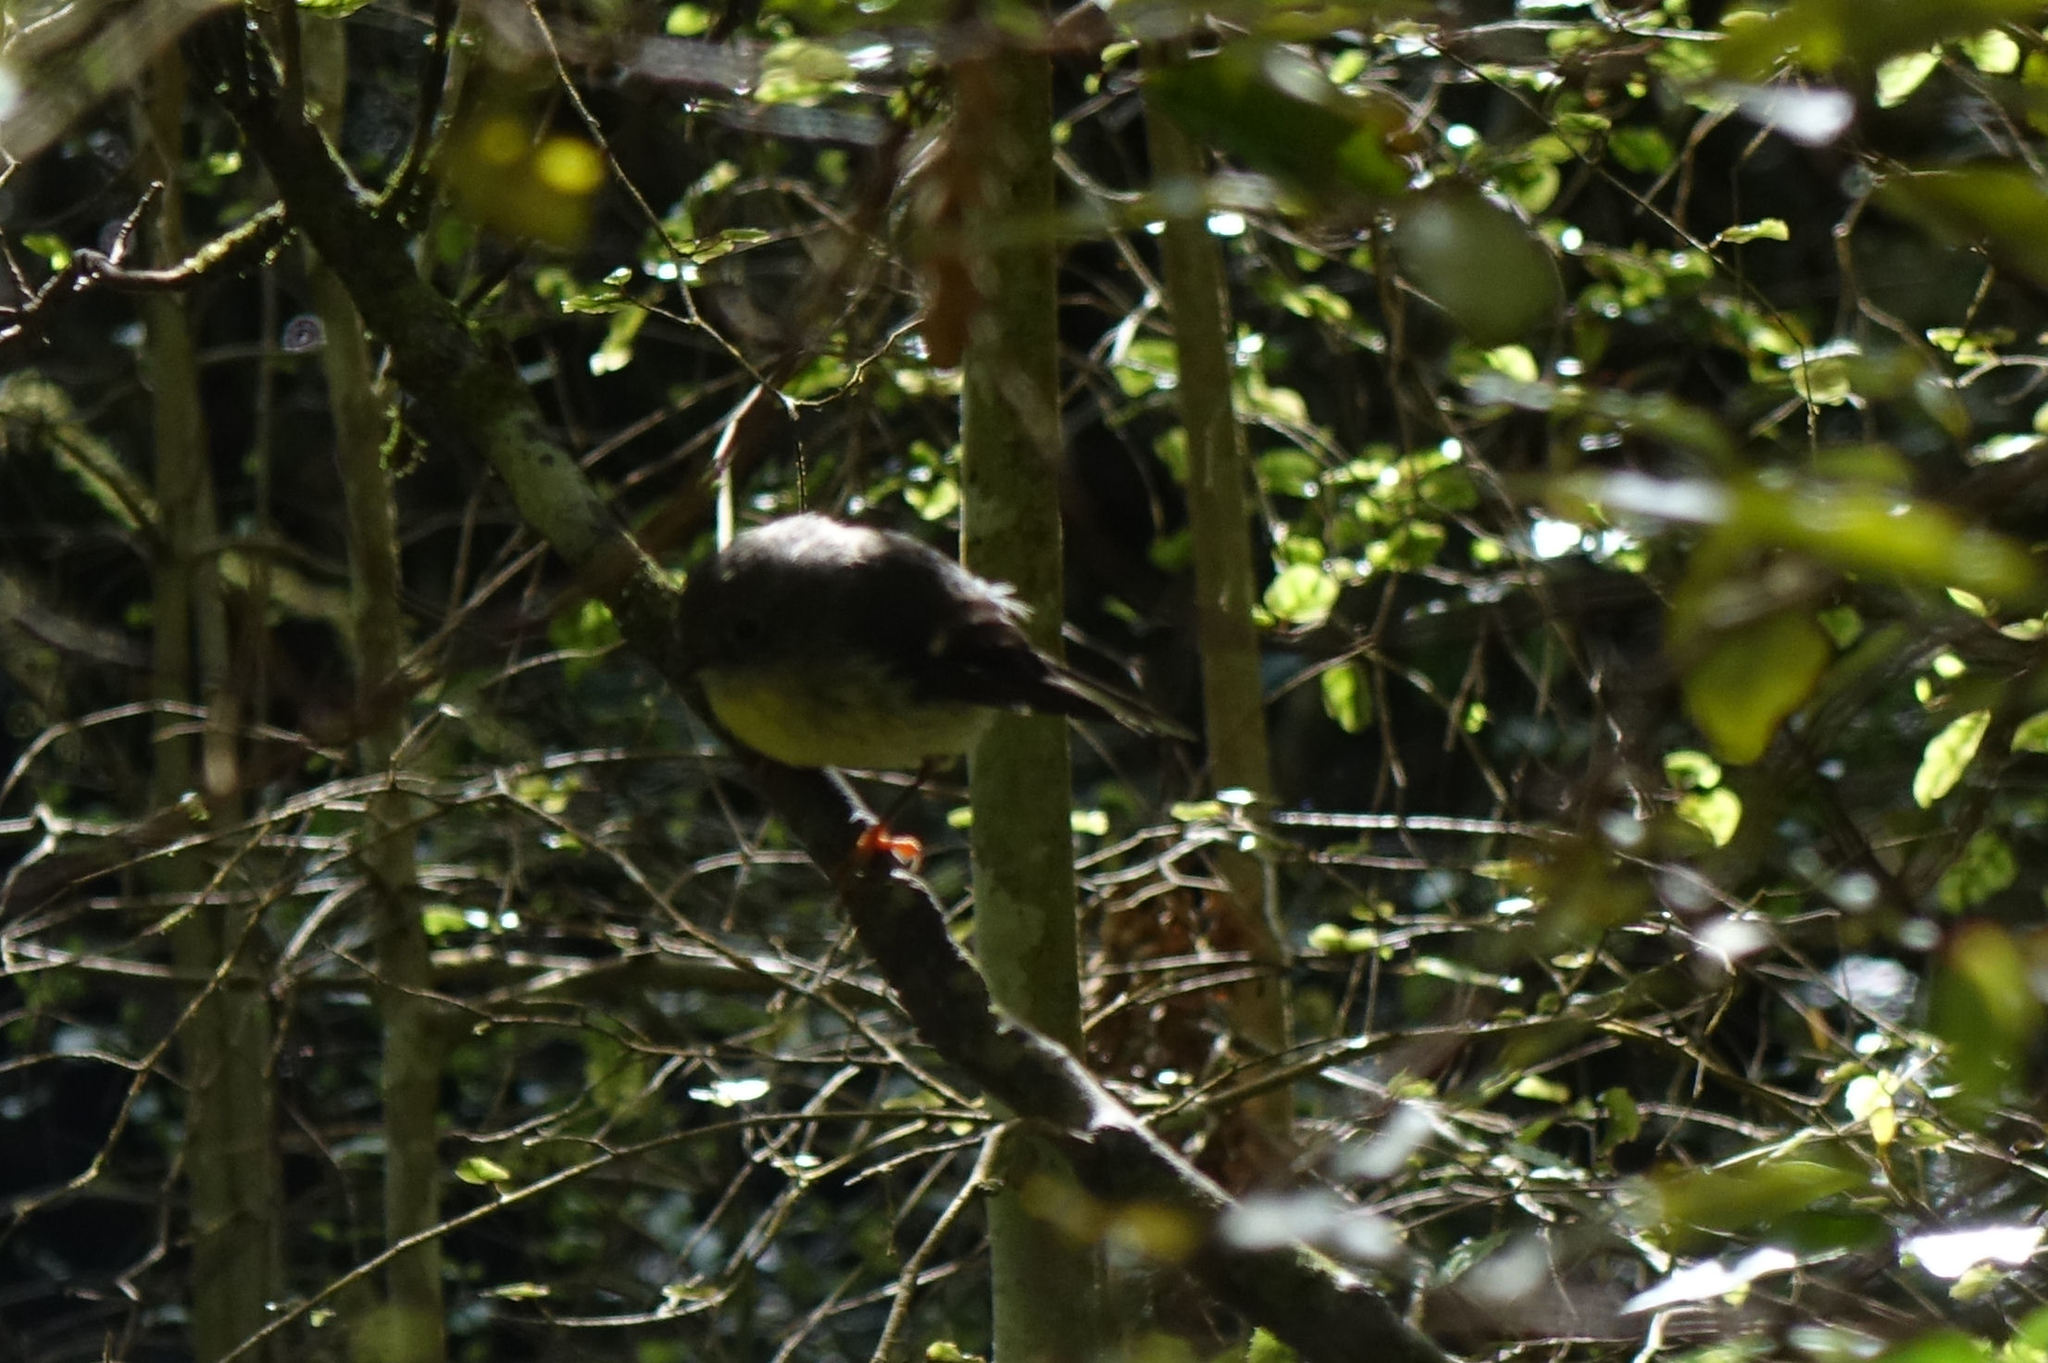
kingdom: Animalia
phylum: Chordata
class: Aves
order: Passeriformes
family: Petroicidae
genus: Petroica
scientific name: Petroica macrocephala
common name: Tomtit
